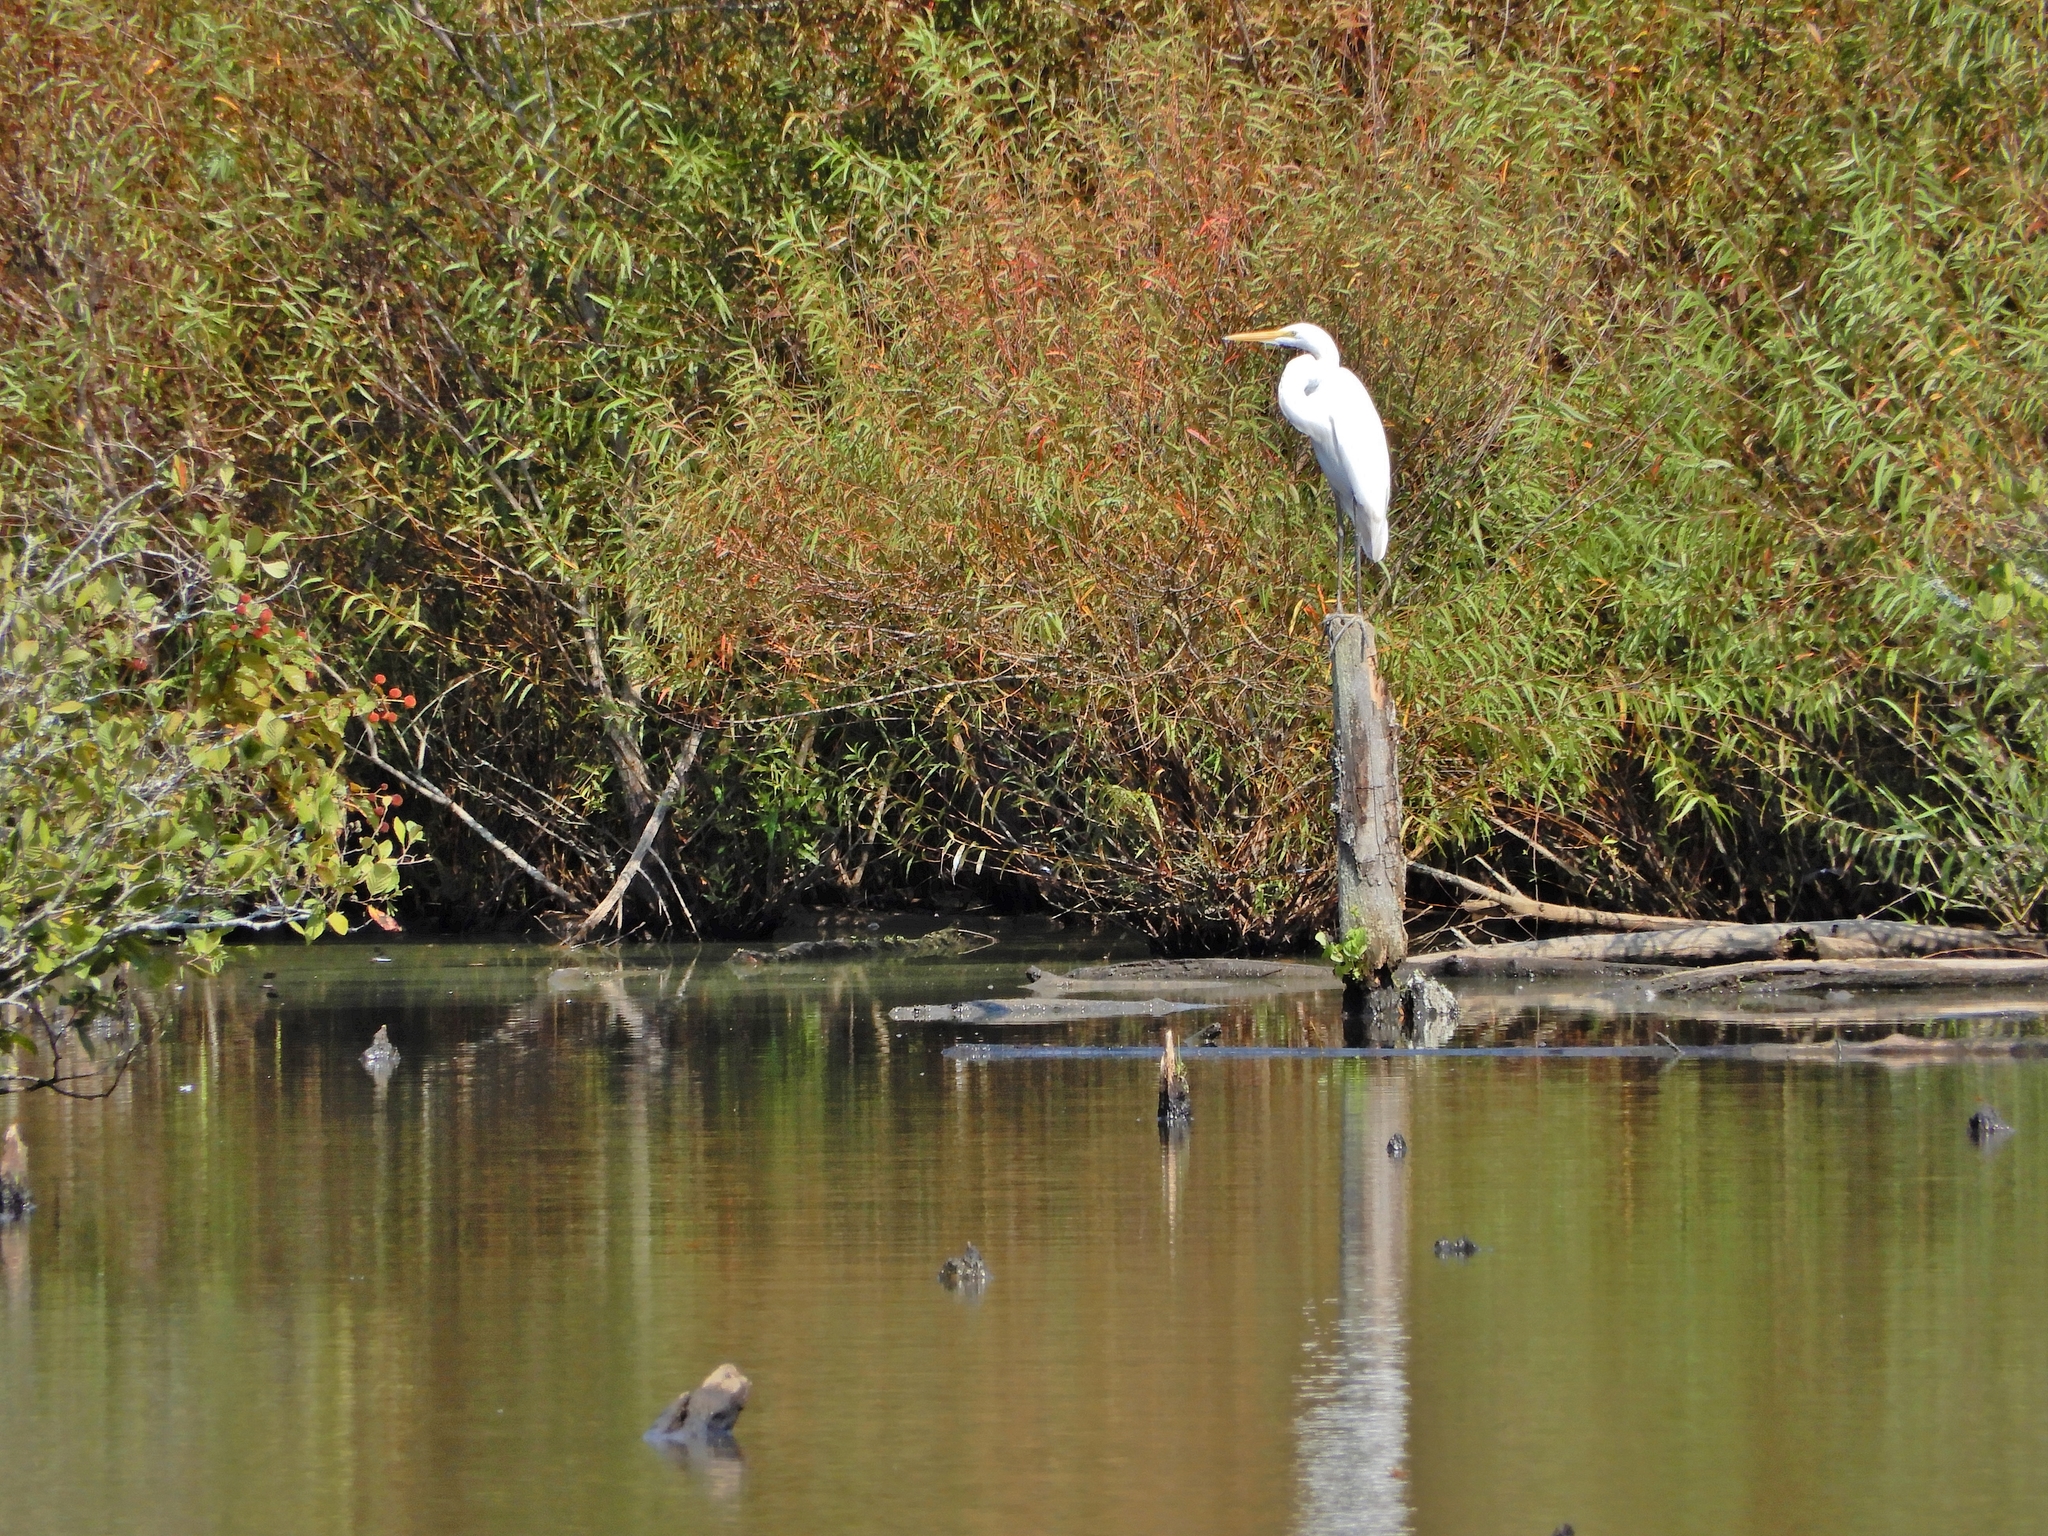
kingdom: Animalia
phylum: Chordata
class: Aves
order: Pelecaniformes
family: Ardeidae
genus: Ardea
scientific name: Ardea alba
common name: Great egret
